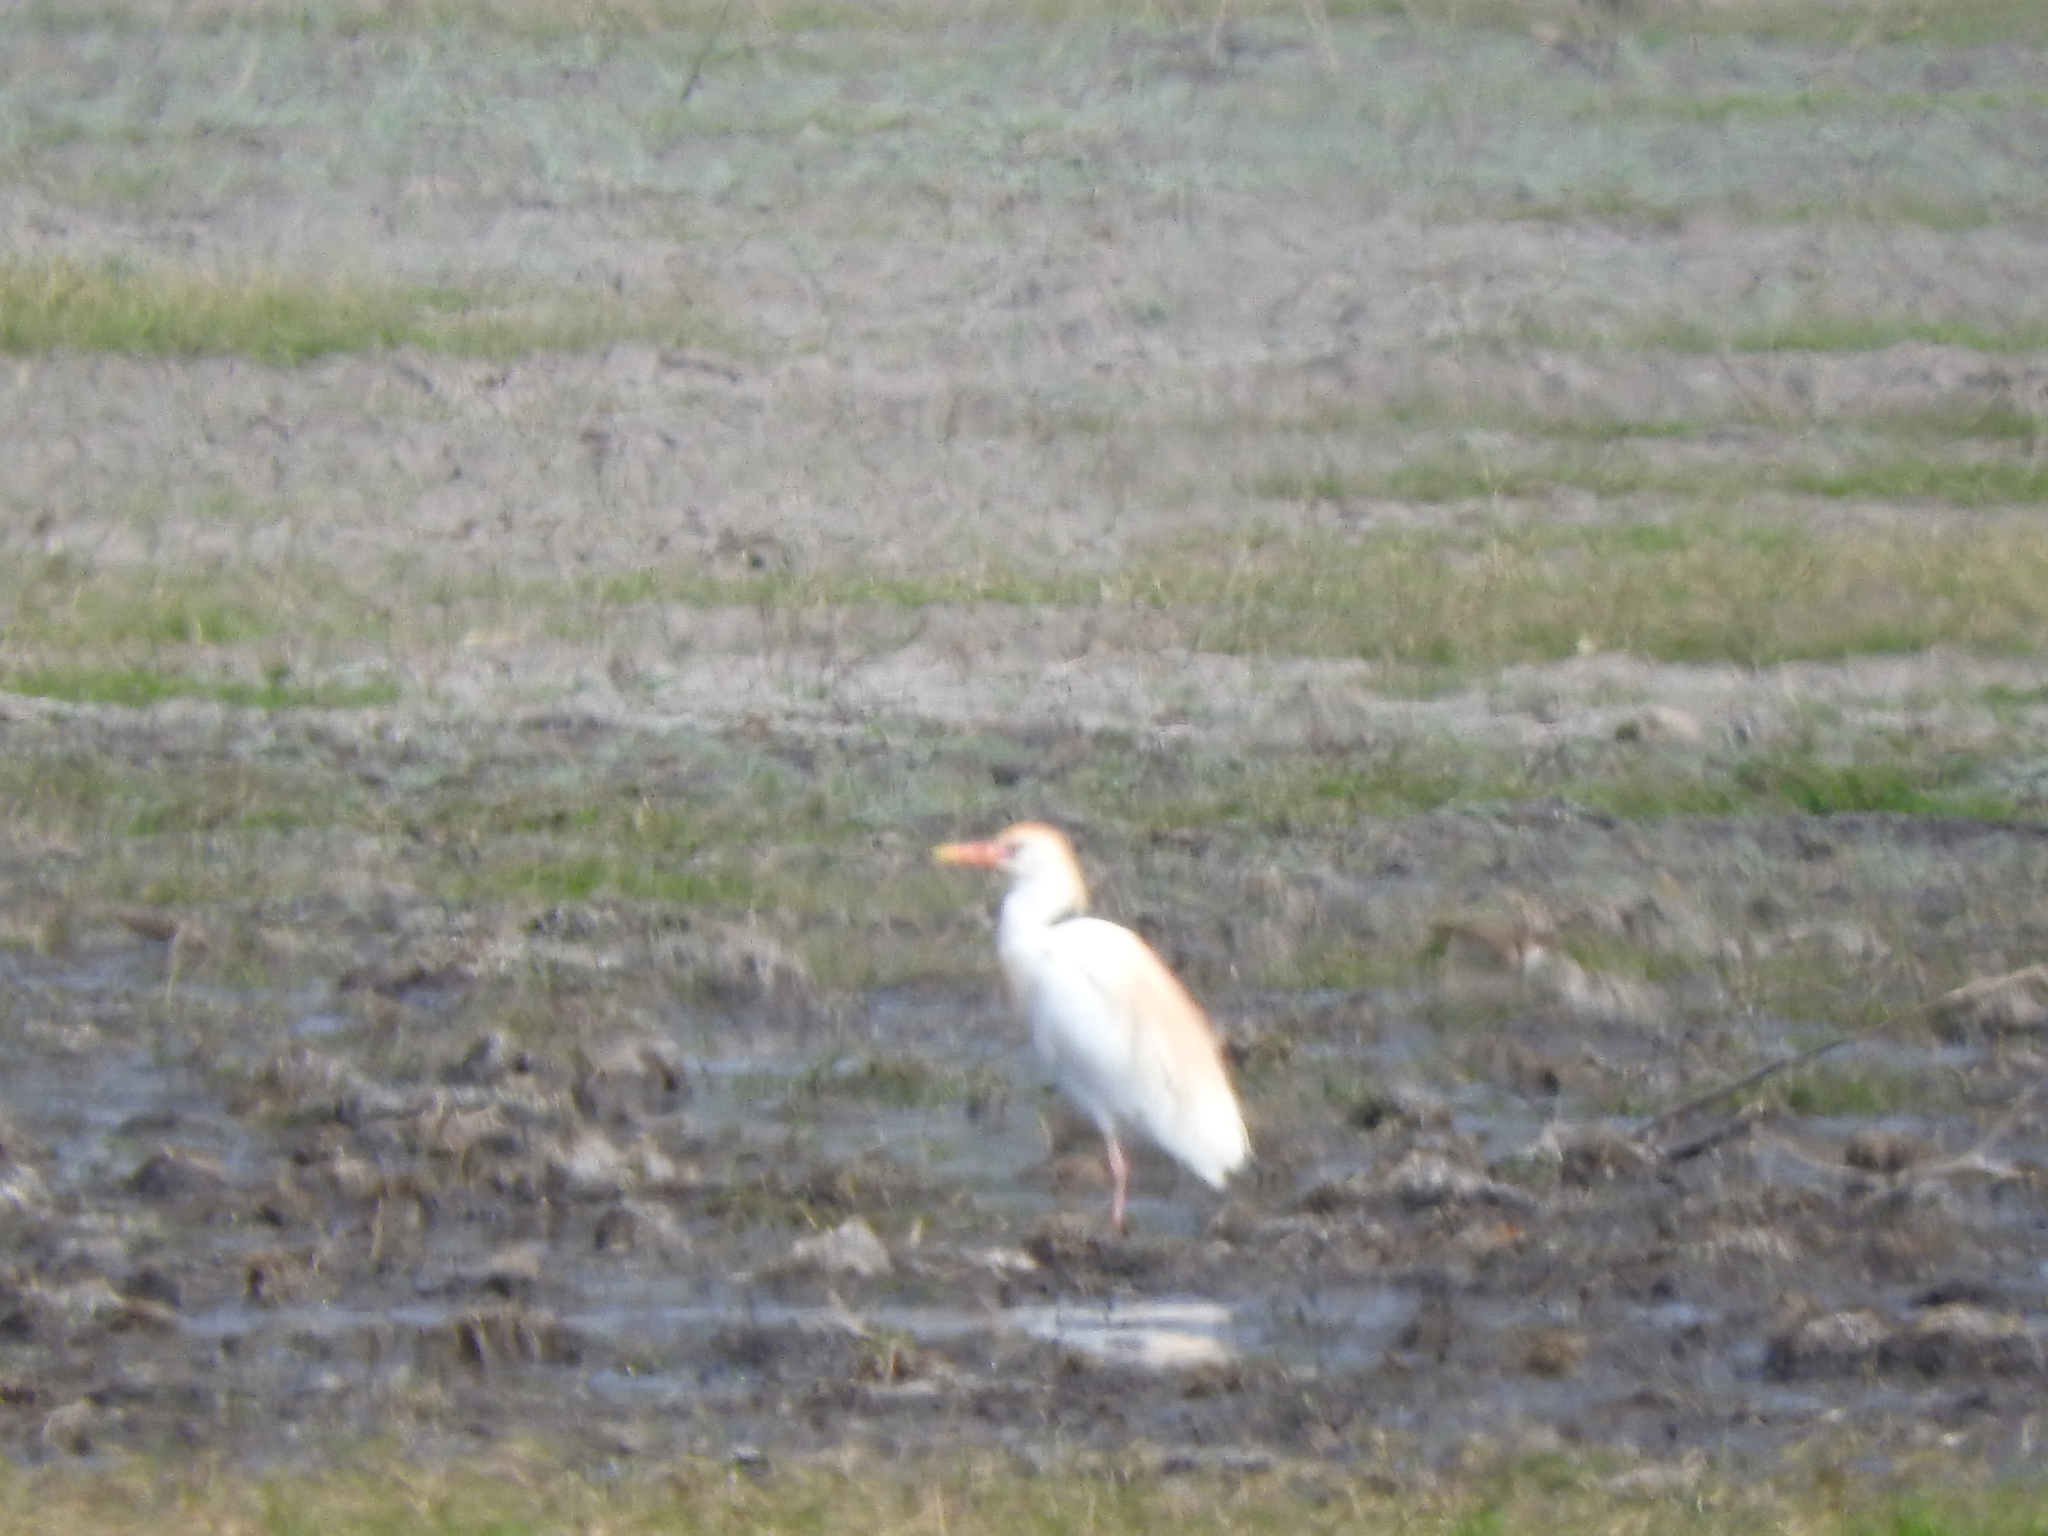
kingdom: Animalia
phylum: Chordata
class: Aves
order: Pelecaniformes
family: Ardeidae
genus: Bubulcus
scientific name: Bubulcus ibis
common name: Cattle egret
